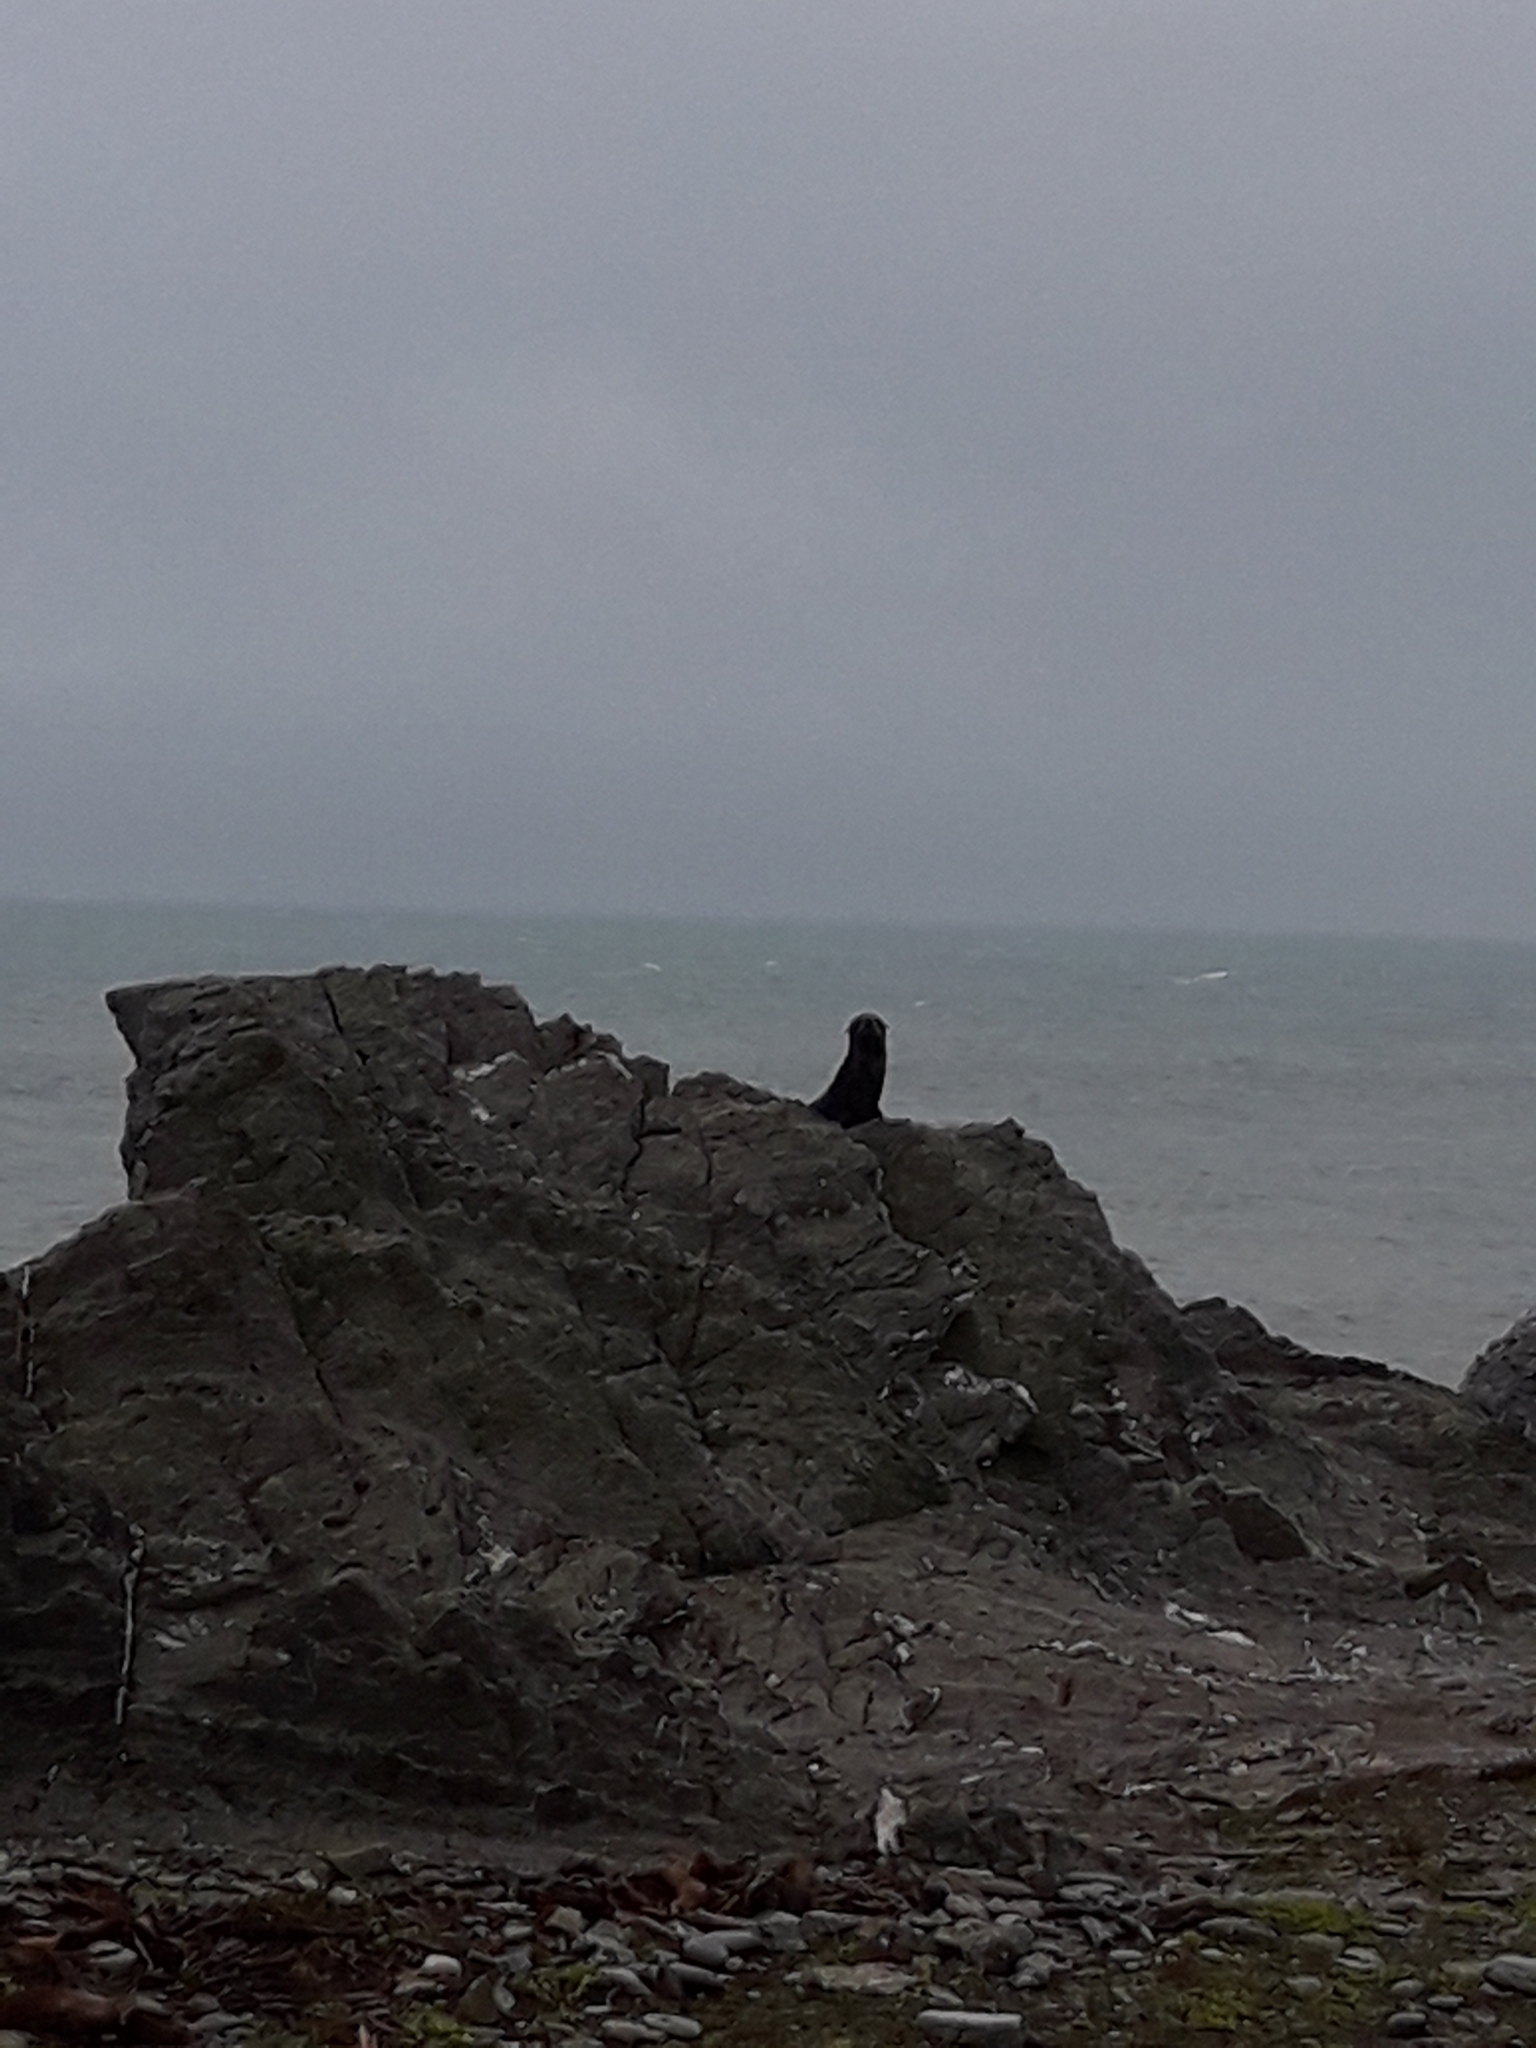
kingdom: Animalia
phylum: Chordata
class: Mammalia
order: Carnivora
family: Otariidae
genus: Arctocephalus
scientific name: Arctocephalus forsteri
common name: New zealand fur seal
